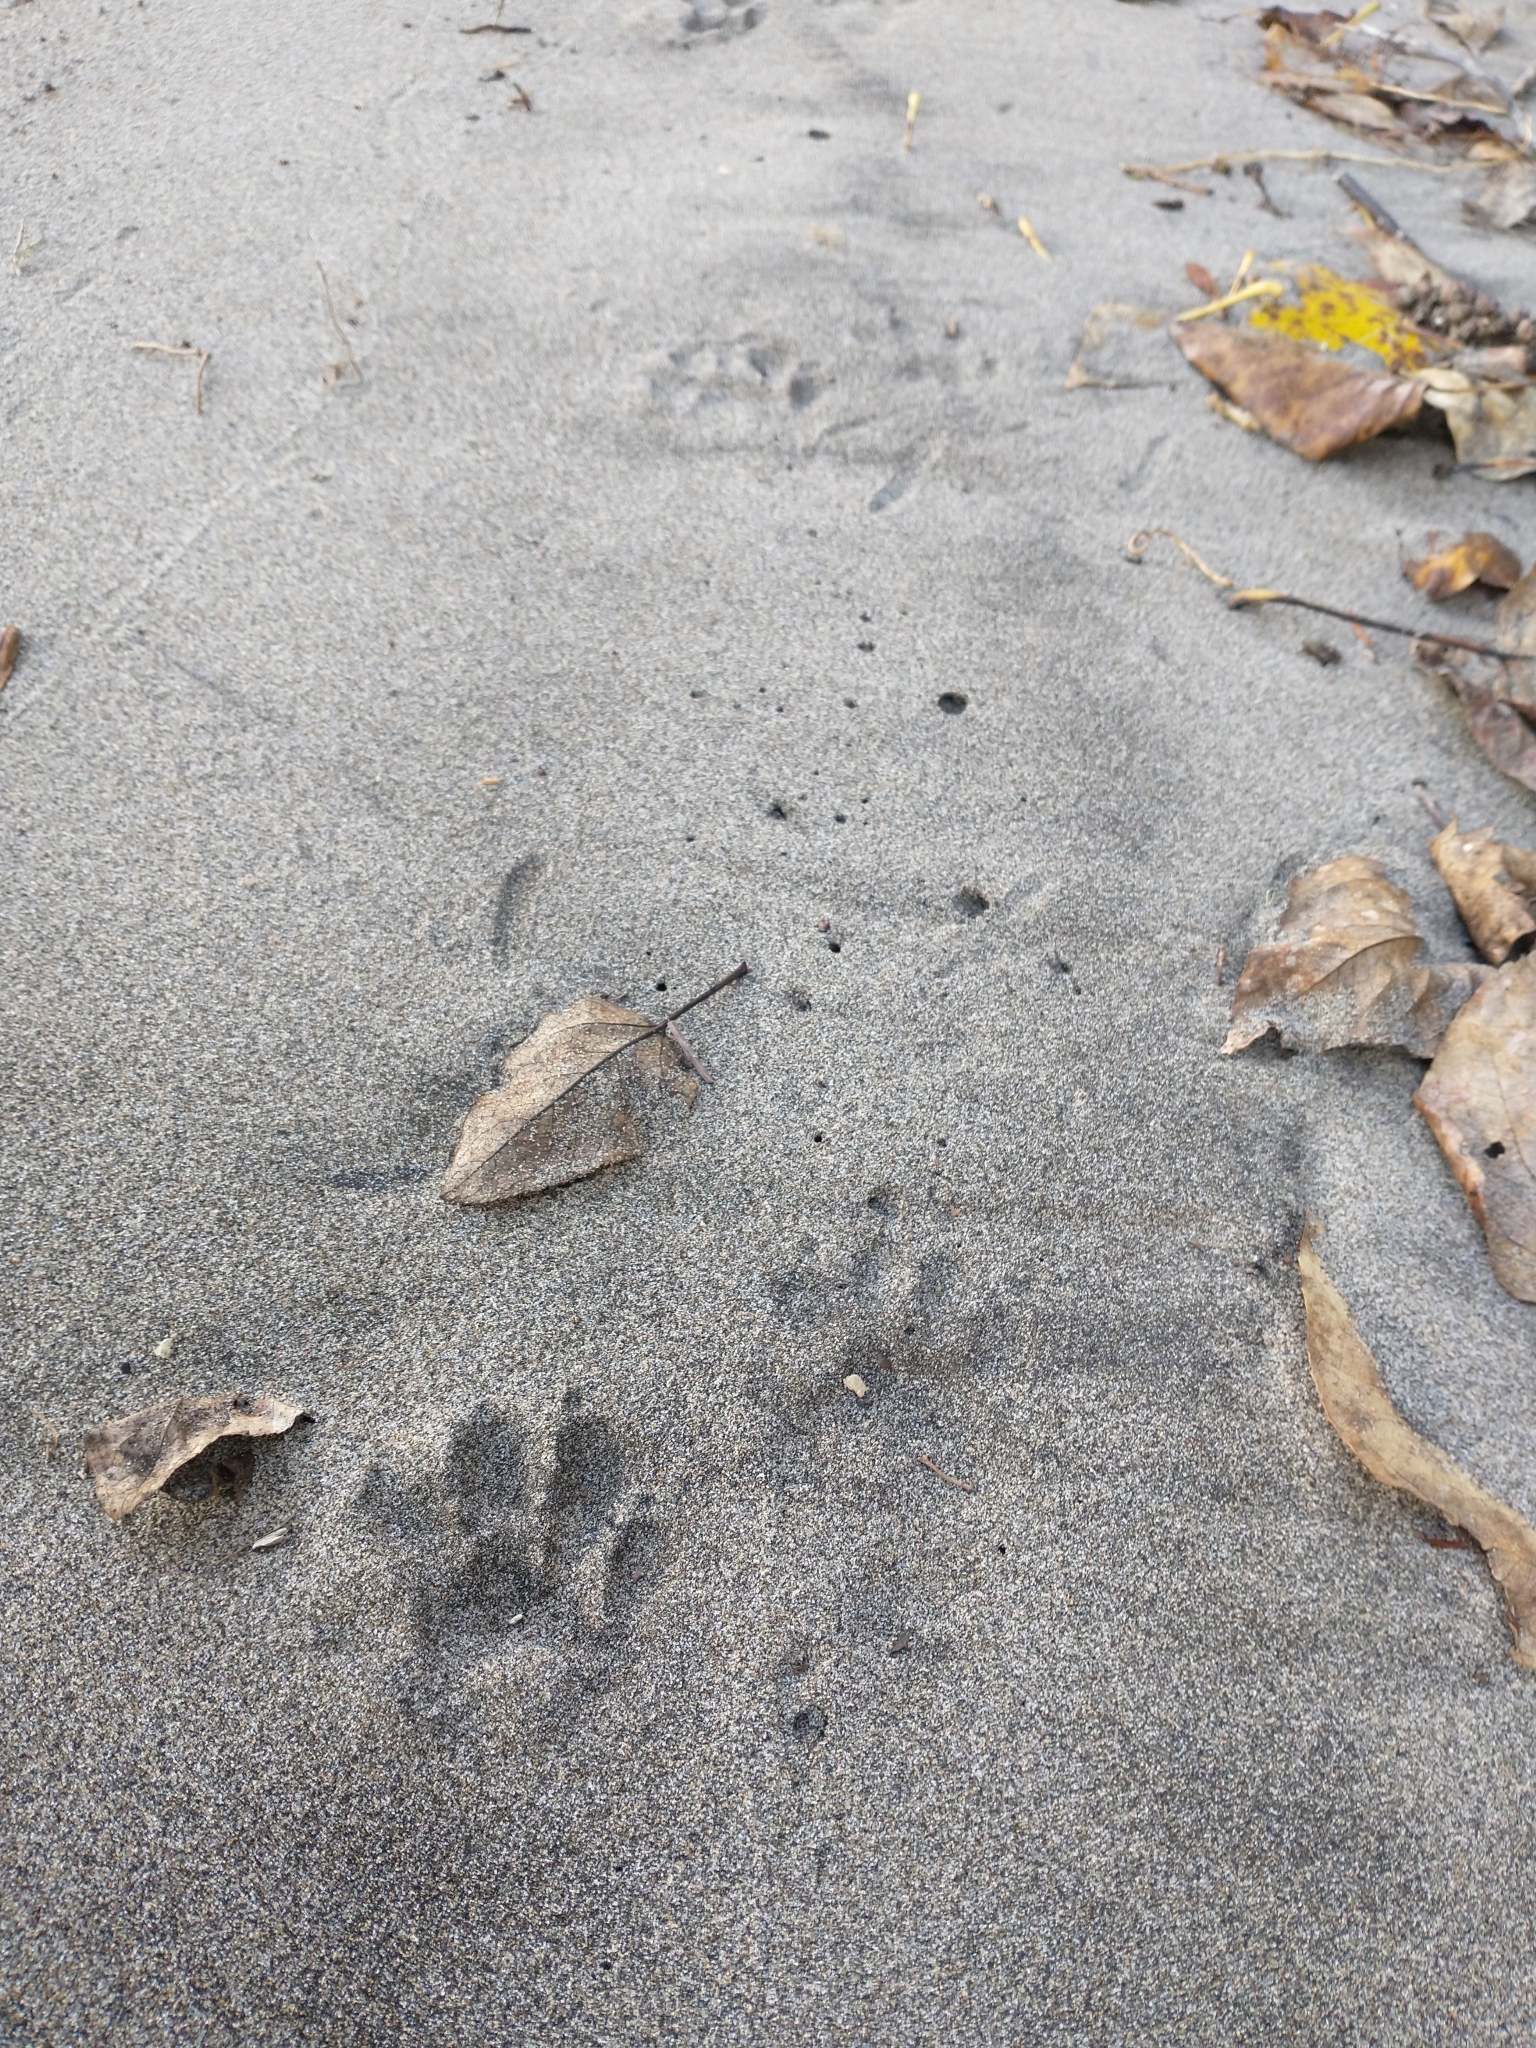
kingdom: Animalia
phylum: Chordata
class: Mammalia
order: Carnivora
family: Procyonidae
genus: Procyon
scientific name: Procyon lotor
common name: Raccoon
